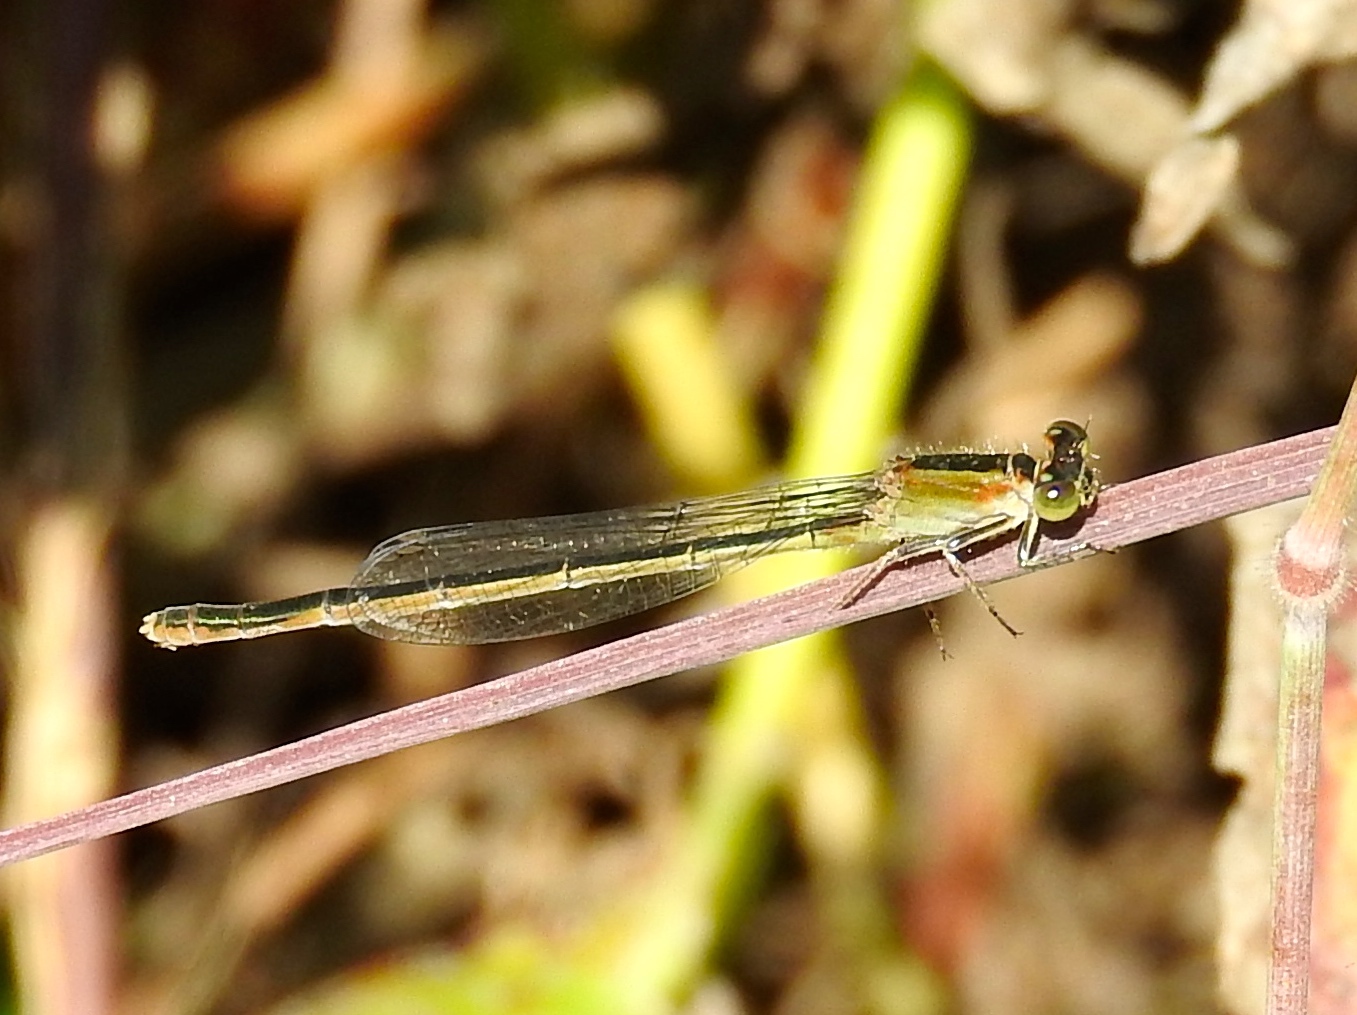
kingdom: Animalia
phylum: Arthropoda
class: Insecta
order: Odonata
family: Coenagrionidae
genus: Ischnura
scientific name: Ischnura ramburii
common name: Rambur's forktail
